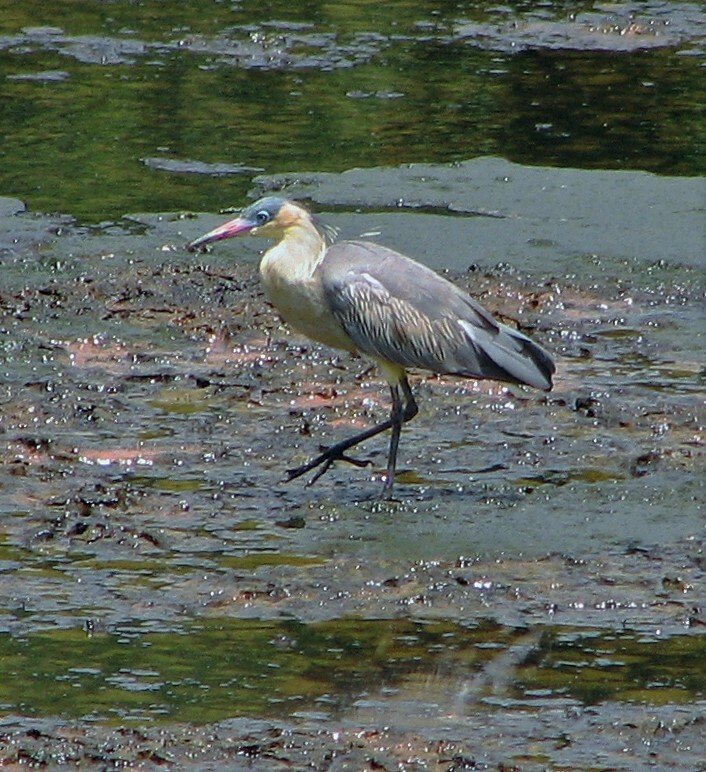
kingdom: Animalia
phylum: Chordata
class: Aves
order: Pelecaniformes
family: Ardeidae
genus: Syrigma
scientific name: Syrigma sibilatrix
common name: Whistling heron
